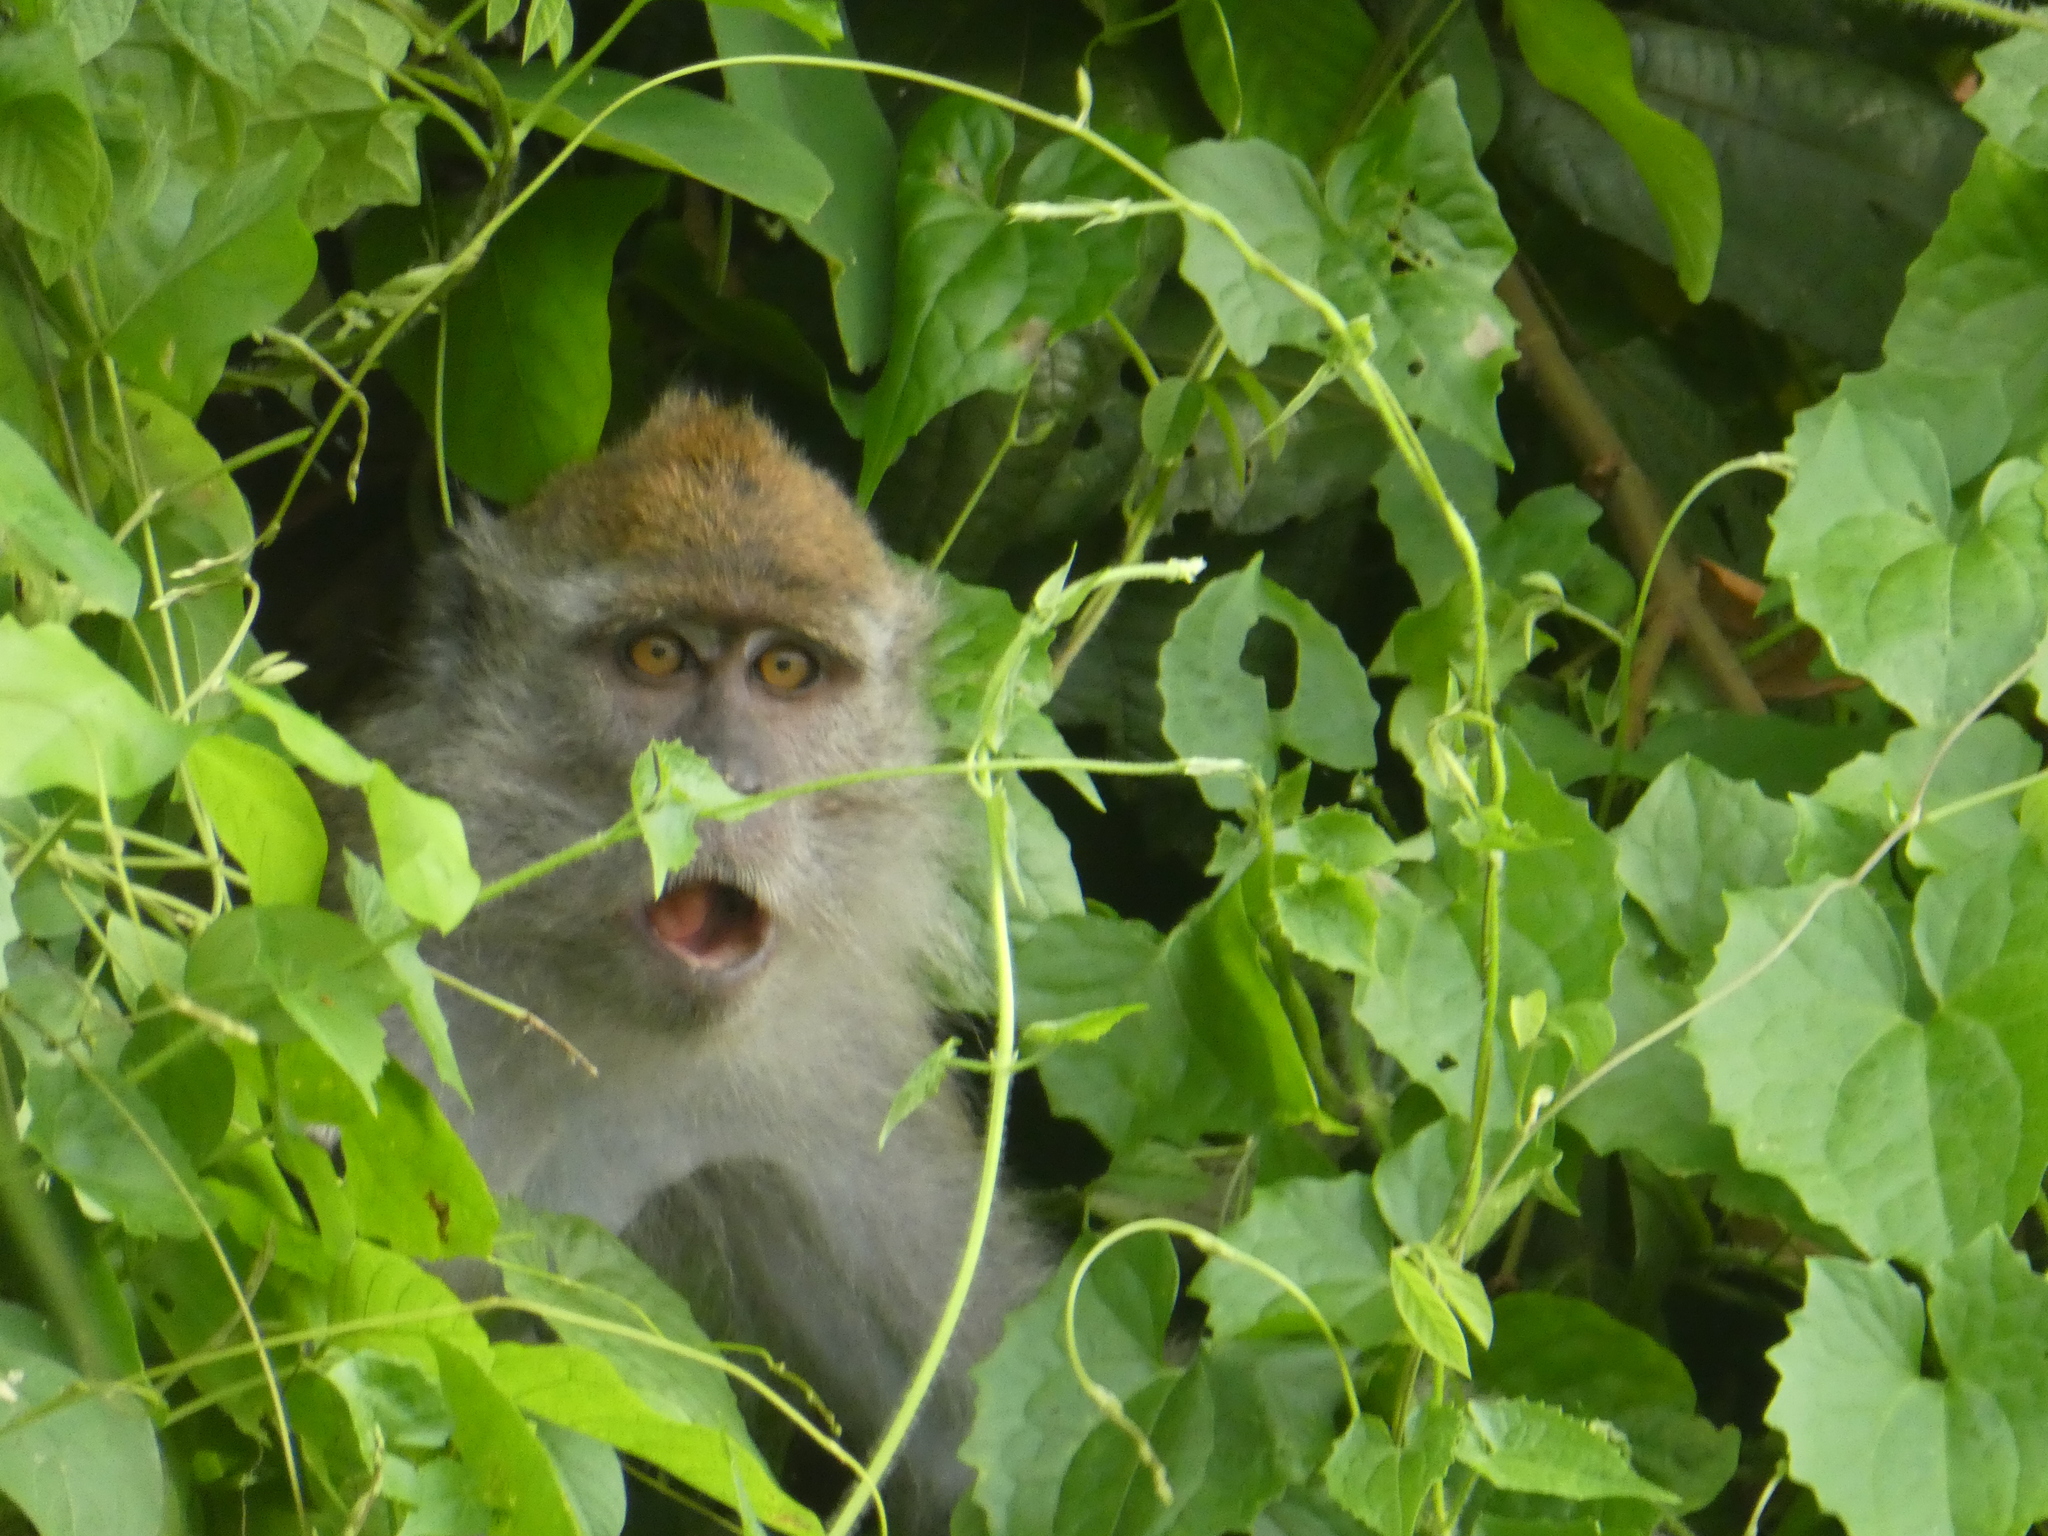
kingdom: Animalia
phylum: Chordata
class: Mammalia
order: Primates
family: Cercopithecidae
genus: Macaca
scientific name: Macaca fascicularis
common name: Crab-eating macaque
